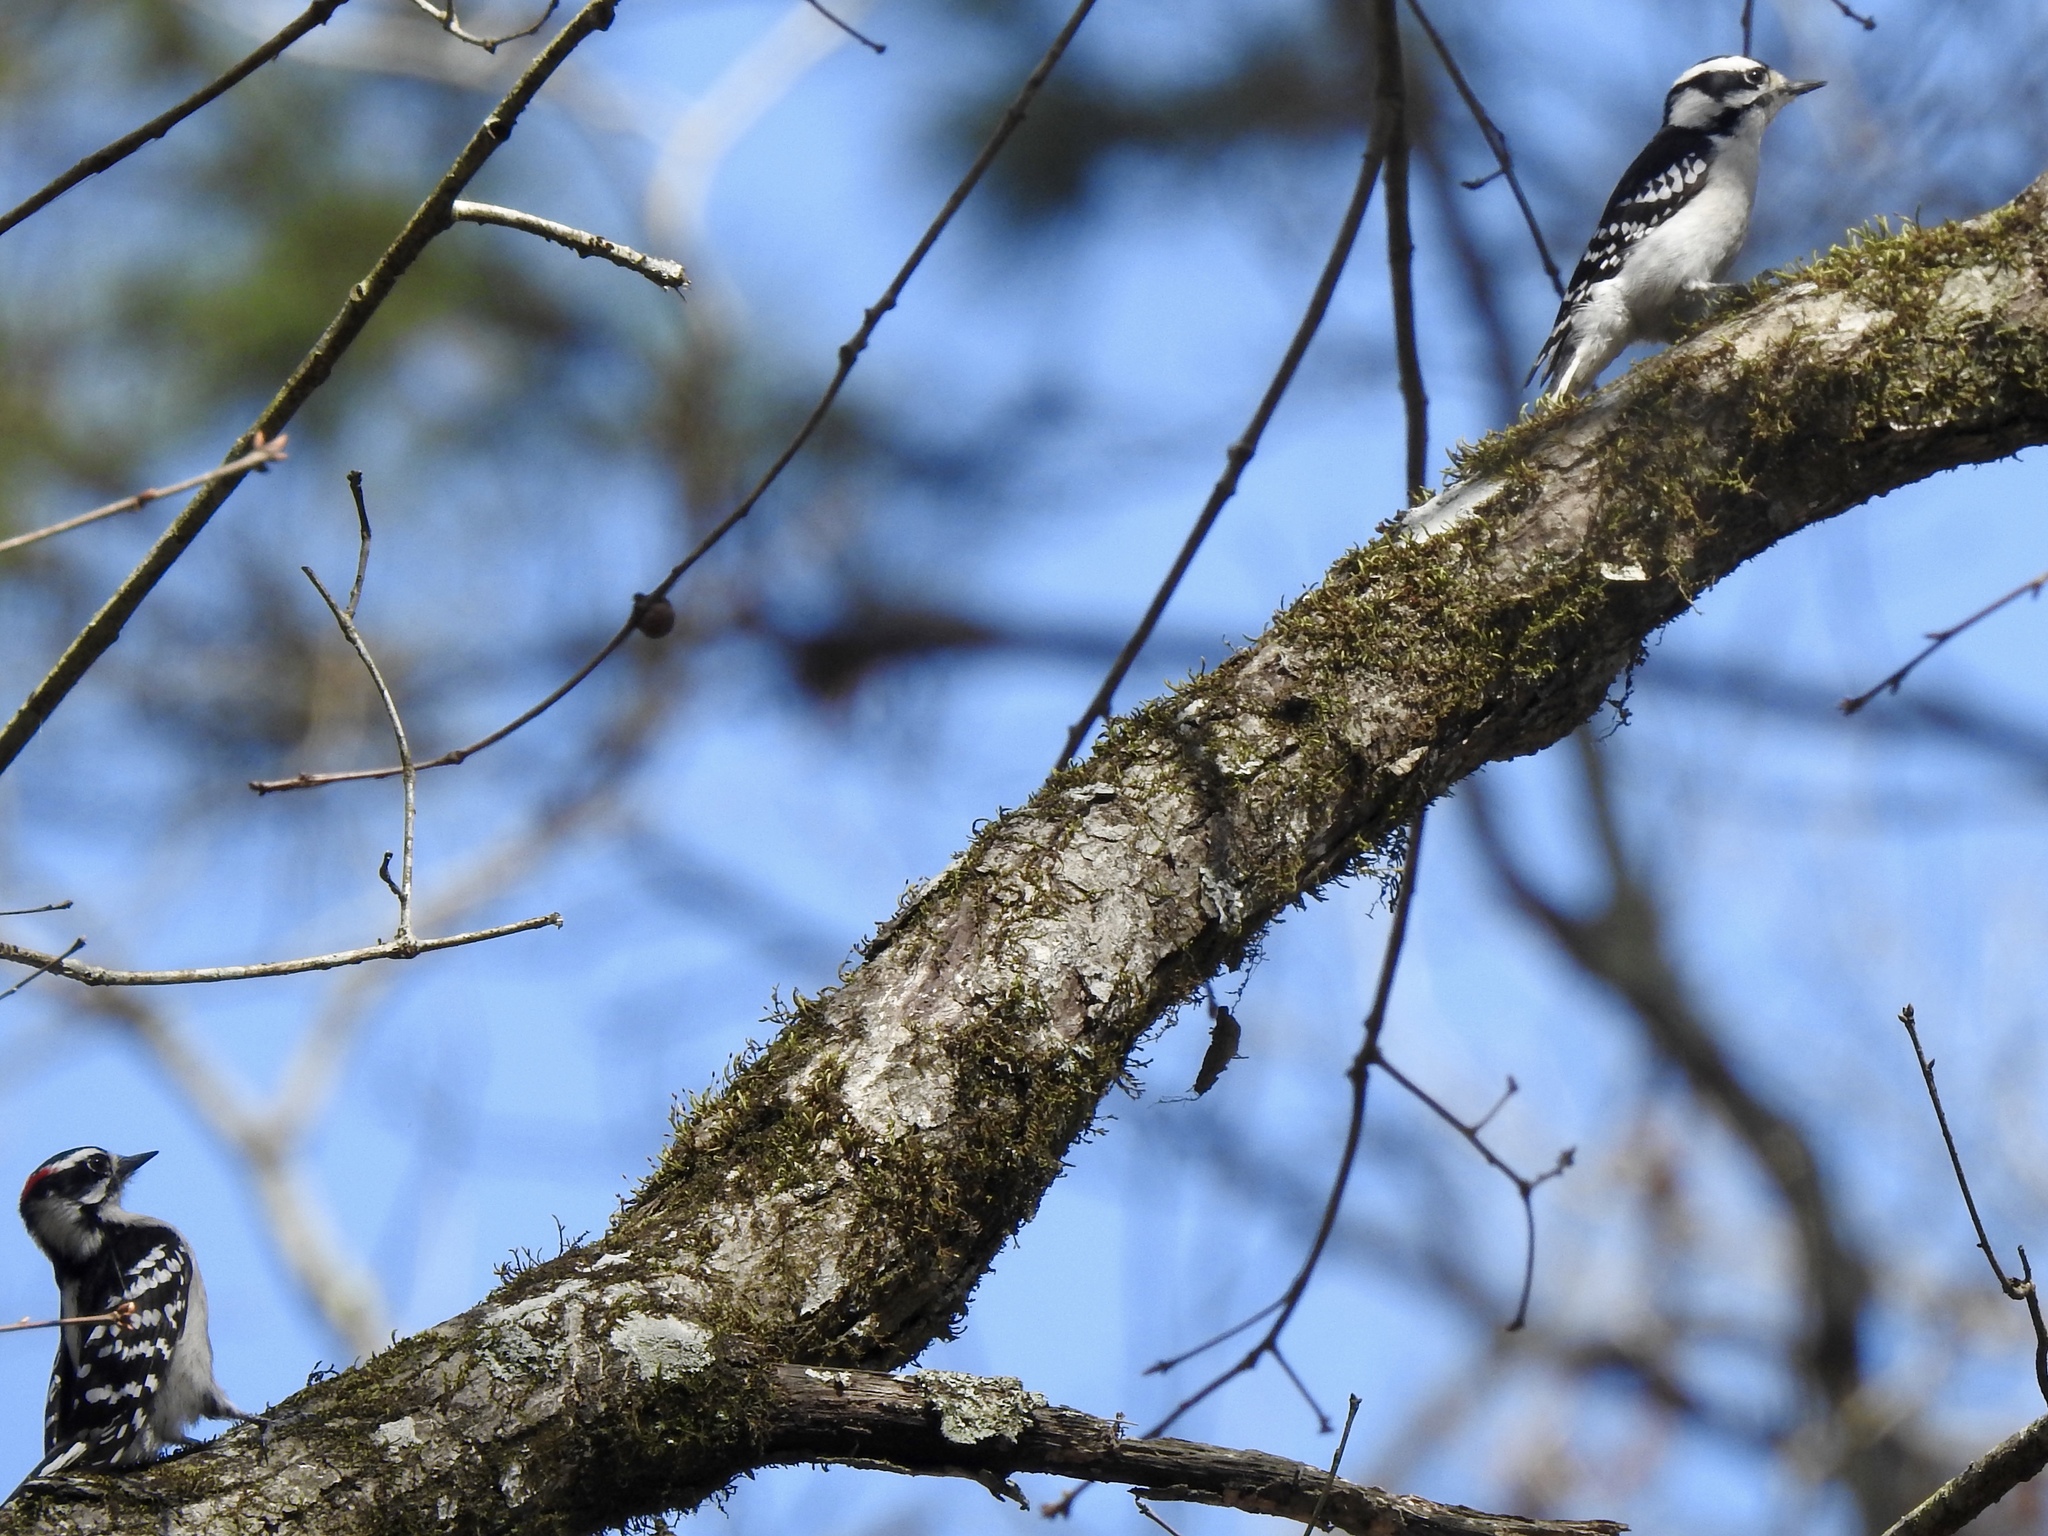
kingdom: Animalia
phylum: Chordata
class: Aves
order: Piciformes
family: Picidae
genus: Dryobates
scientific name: Dryobates pubescens
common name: Downy woodpecker
